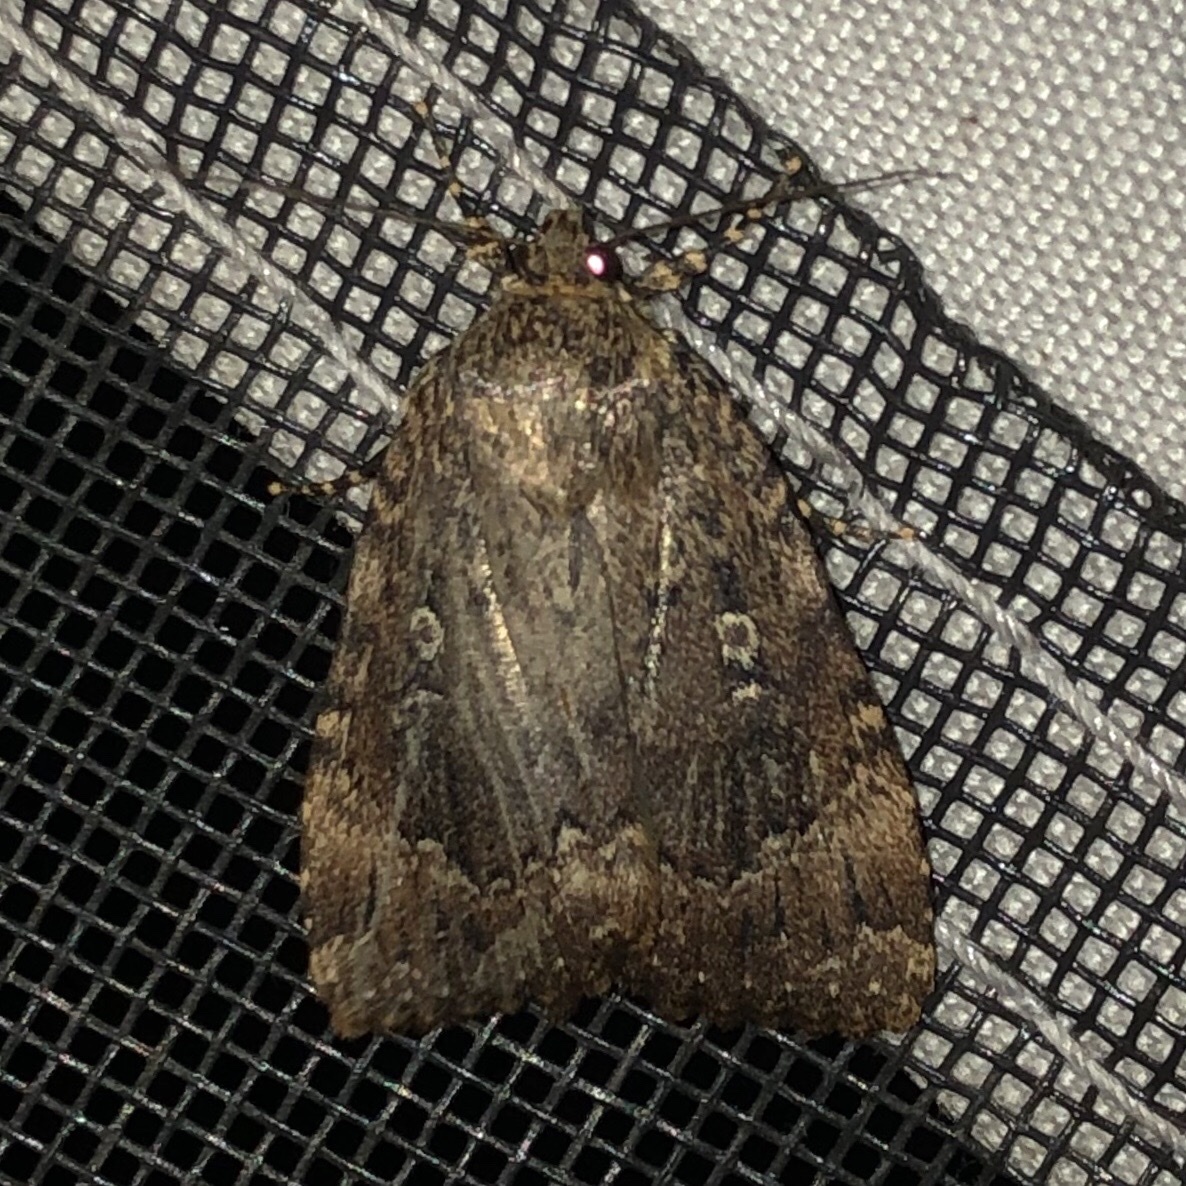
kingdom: Animalia
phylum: Arthropoda
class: Insecta
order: Lepidoptera
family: Noctuidae
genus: Amphipyra
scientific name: Amphipyra pyramidoides
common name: American copper underwing
